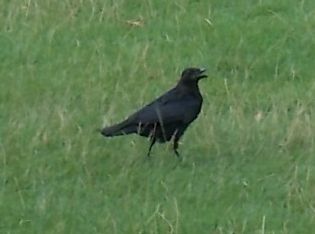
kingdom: Animalia
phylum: Chordata
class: Aves
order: Passeriformes
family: Corvidae
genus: Corvus
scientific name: Corvus corone
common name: Carrion crow
